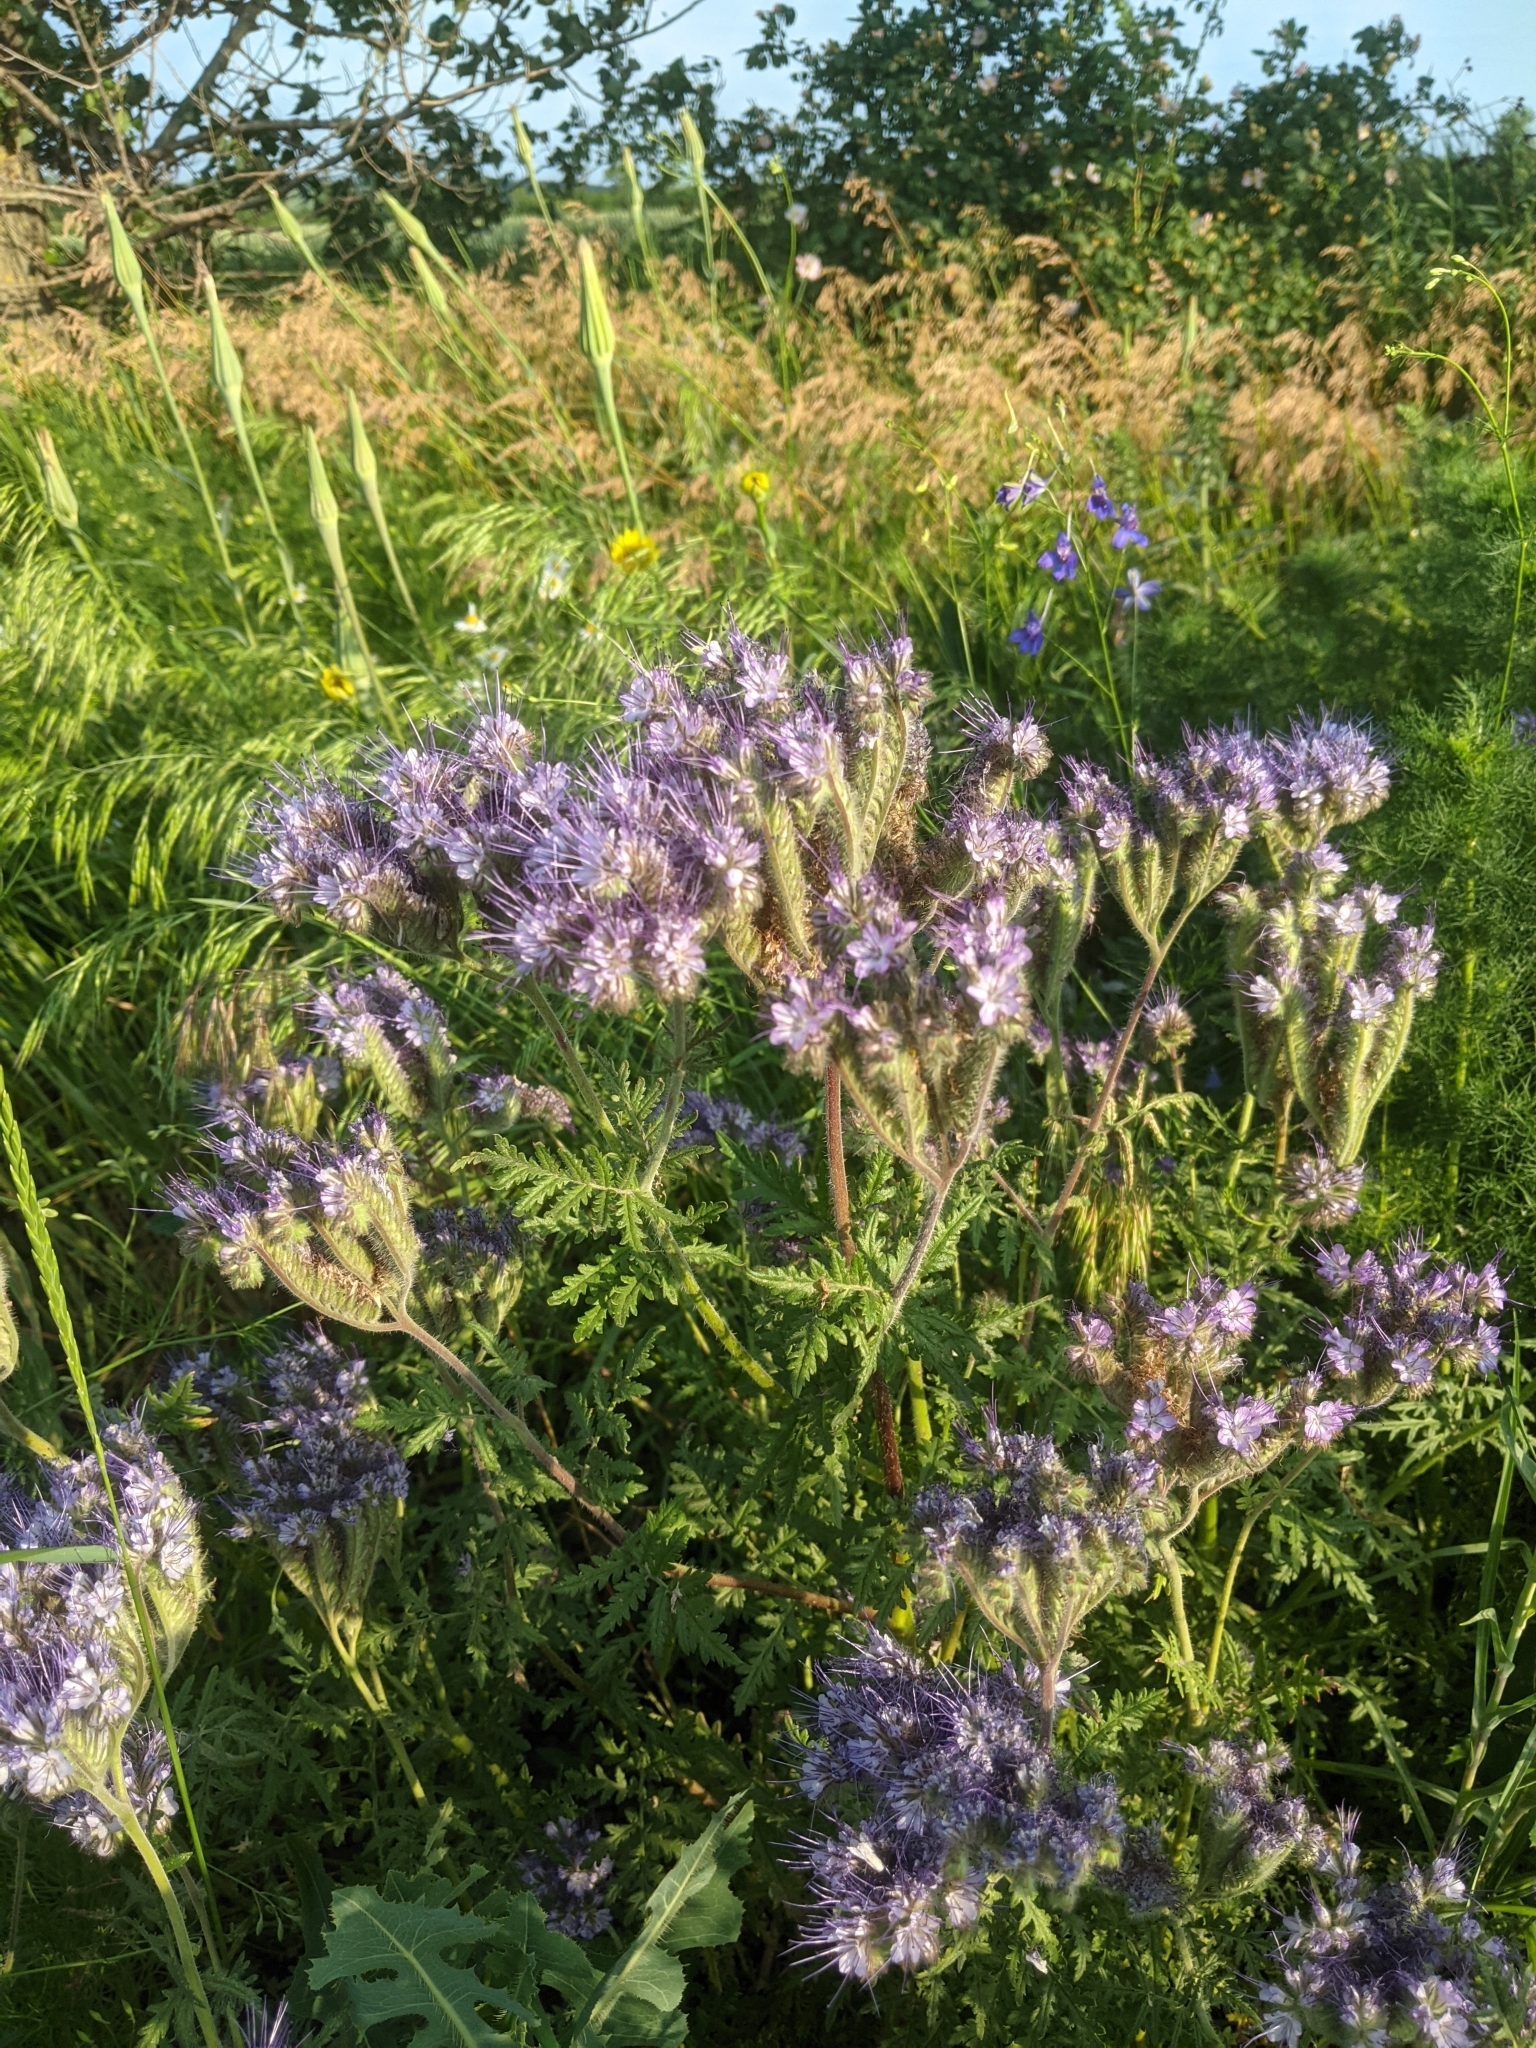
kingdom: Plantae
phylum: Tracheophyta
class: Magnoliopsida
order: Boraginales
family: Hydrophyllaceae
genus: Phacelia
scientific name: Phacelia tanacetifolia
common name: Phacelia
